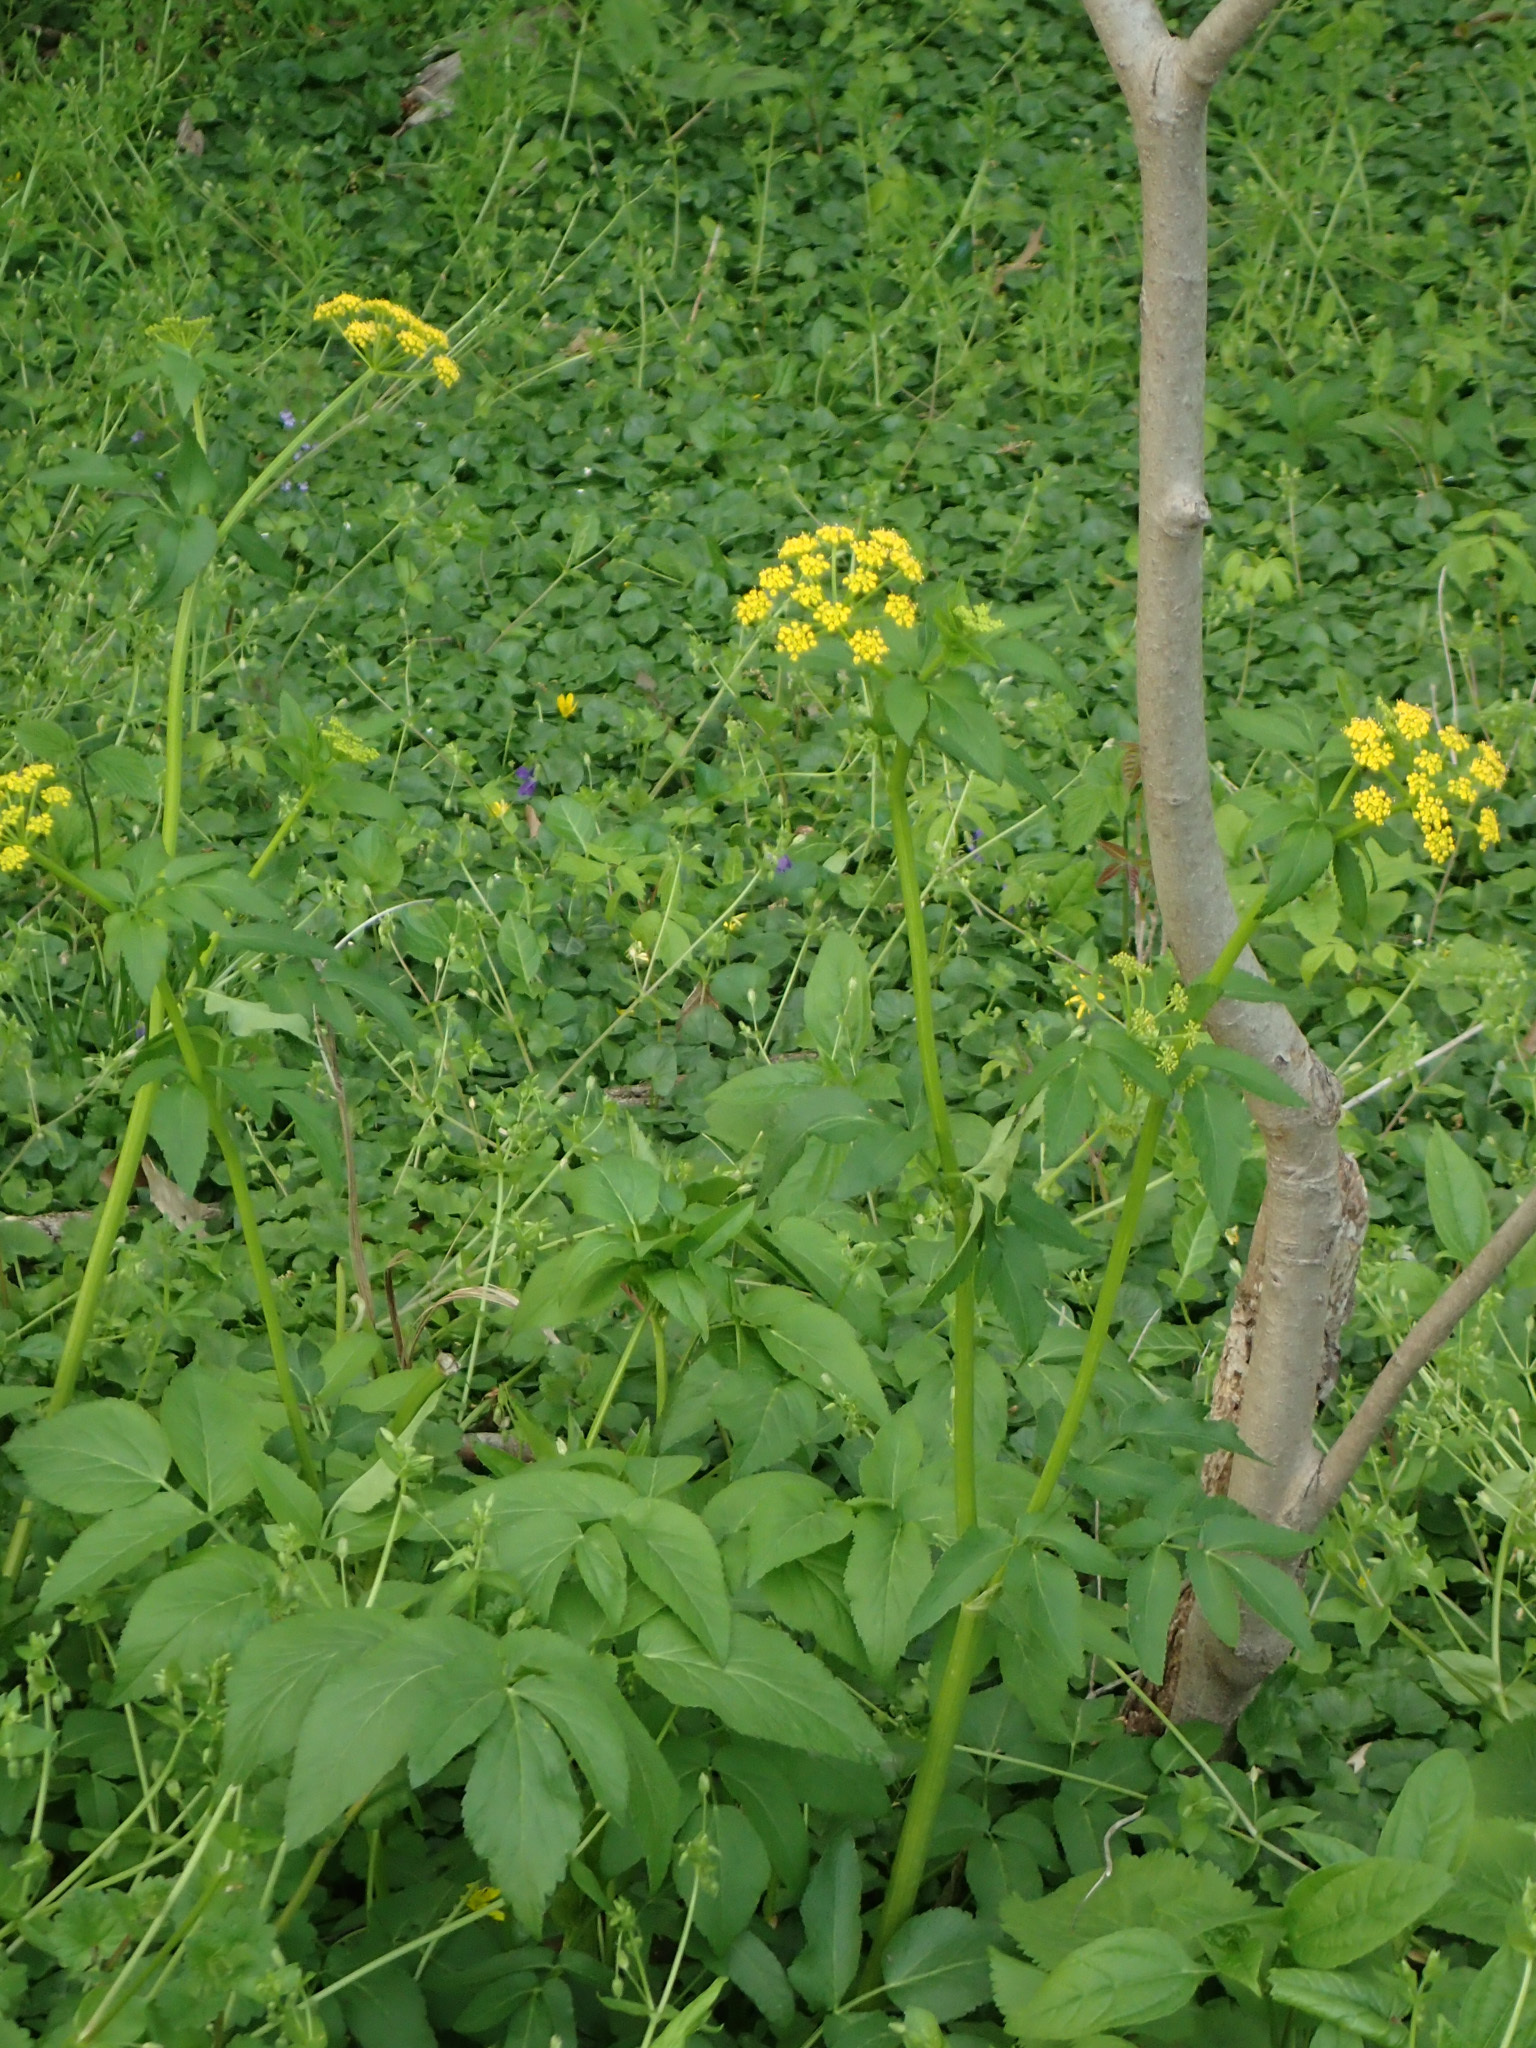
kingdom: Plantae
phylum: Tracheophyta
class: Magnoliopsida
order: Apiales
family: Apiaceae
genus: Zizia
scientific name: Zizia aurea
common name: Golden alexanders
